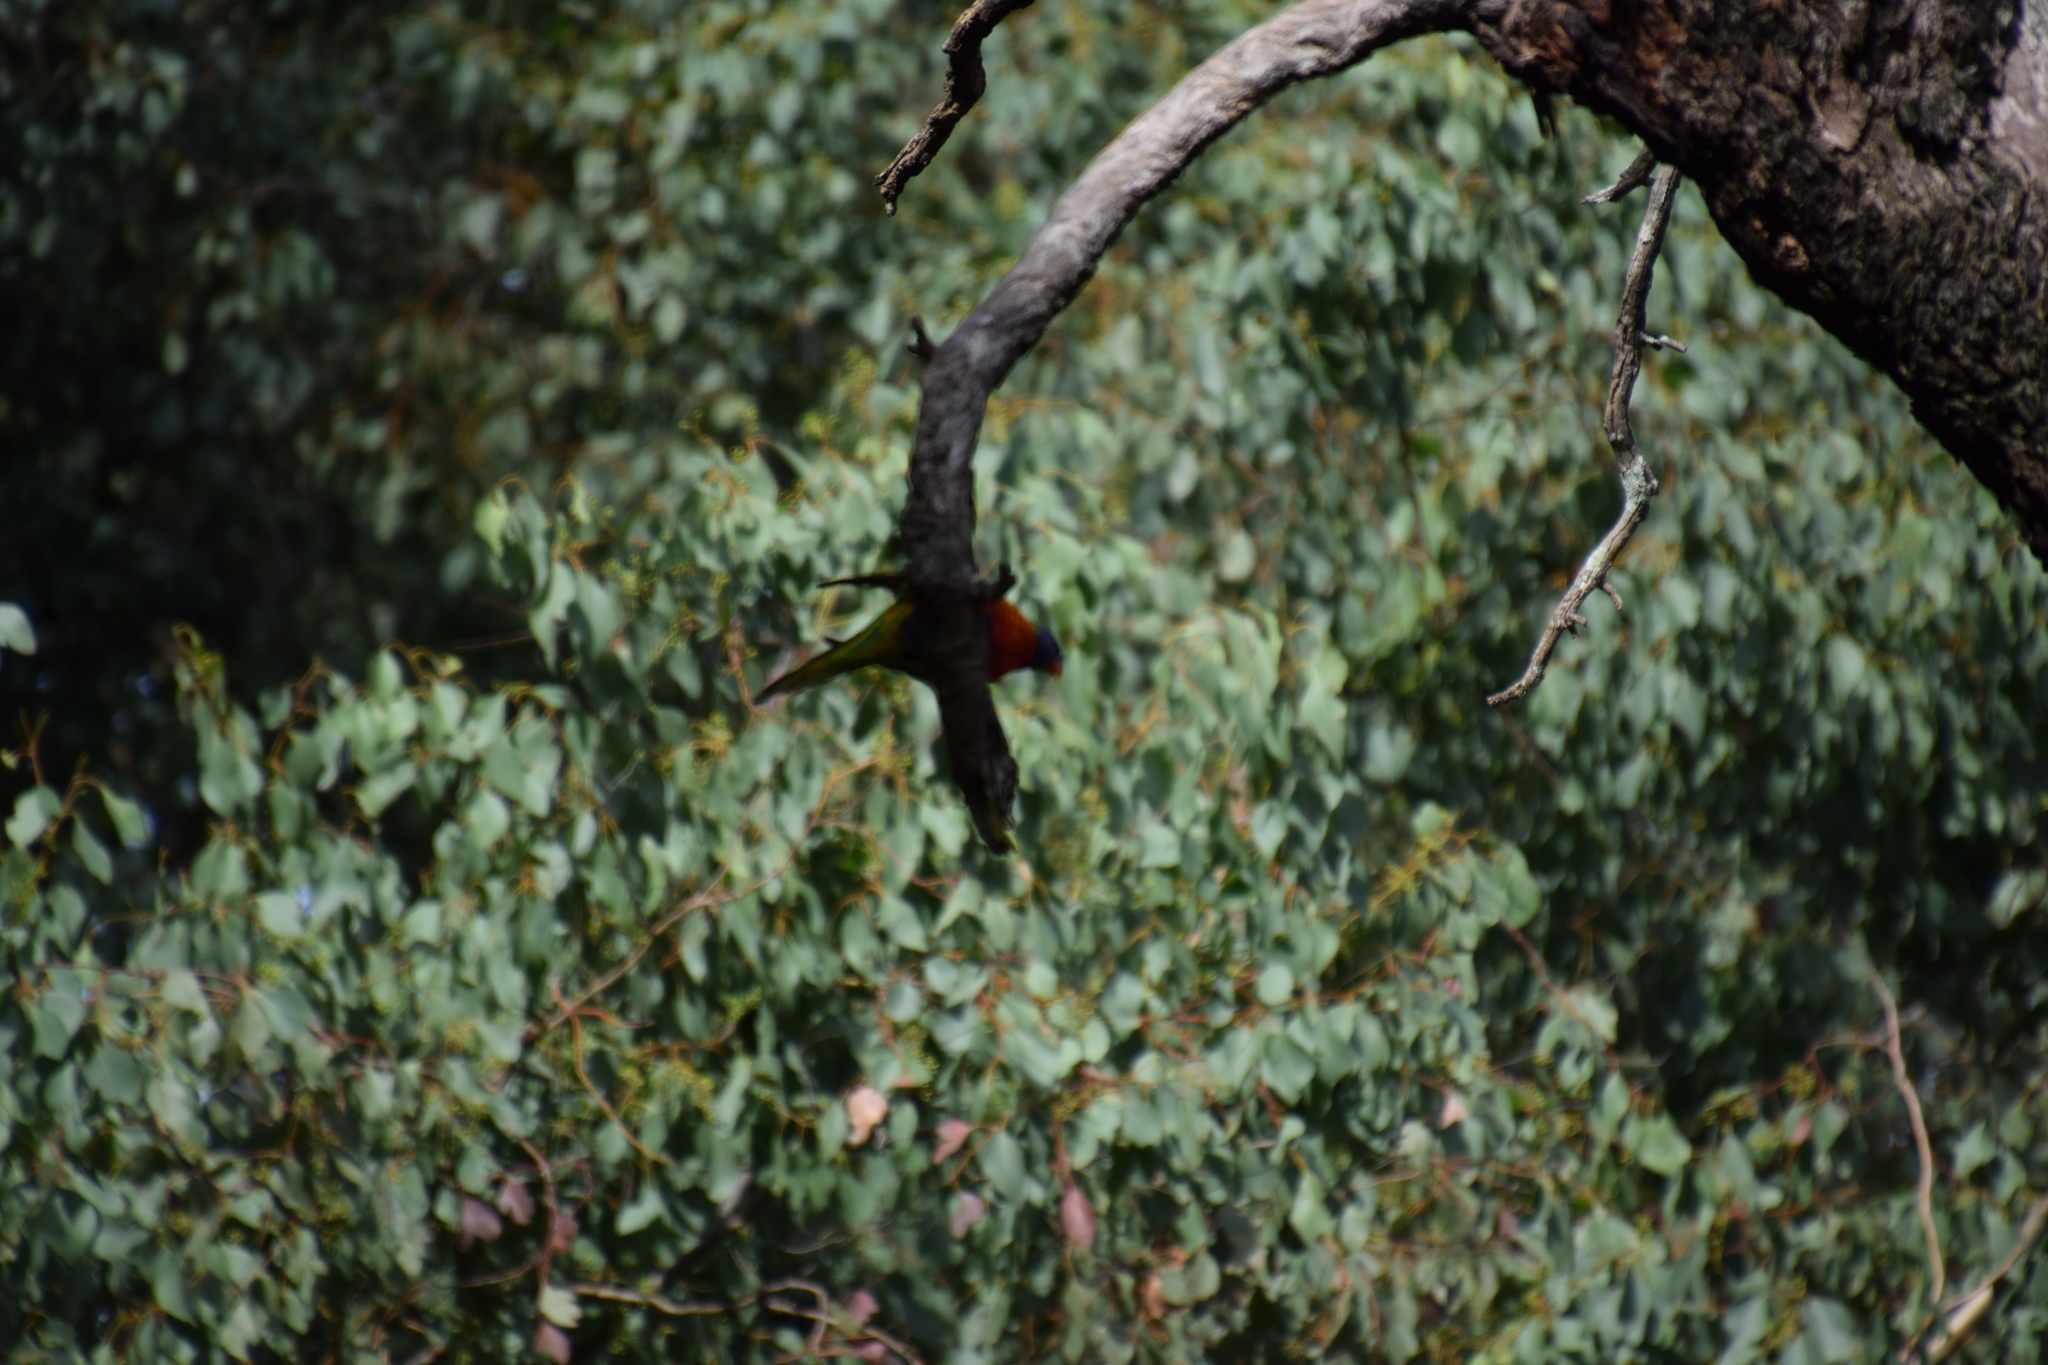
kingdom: Animalia
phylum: Chordata
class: Aves
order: Psittaciformes
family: Psittacidae
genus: Trichoglossus
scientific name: Trichoglossus haematodus
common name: Coconut lorikeet
